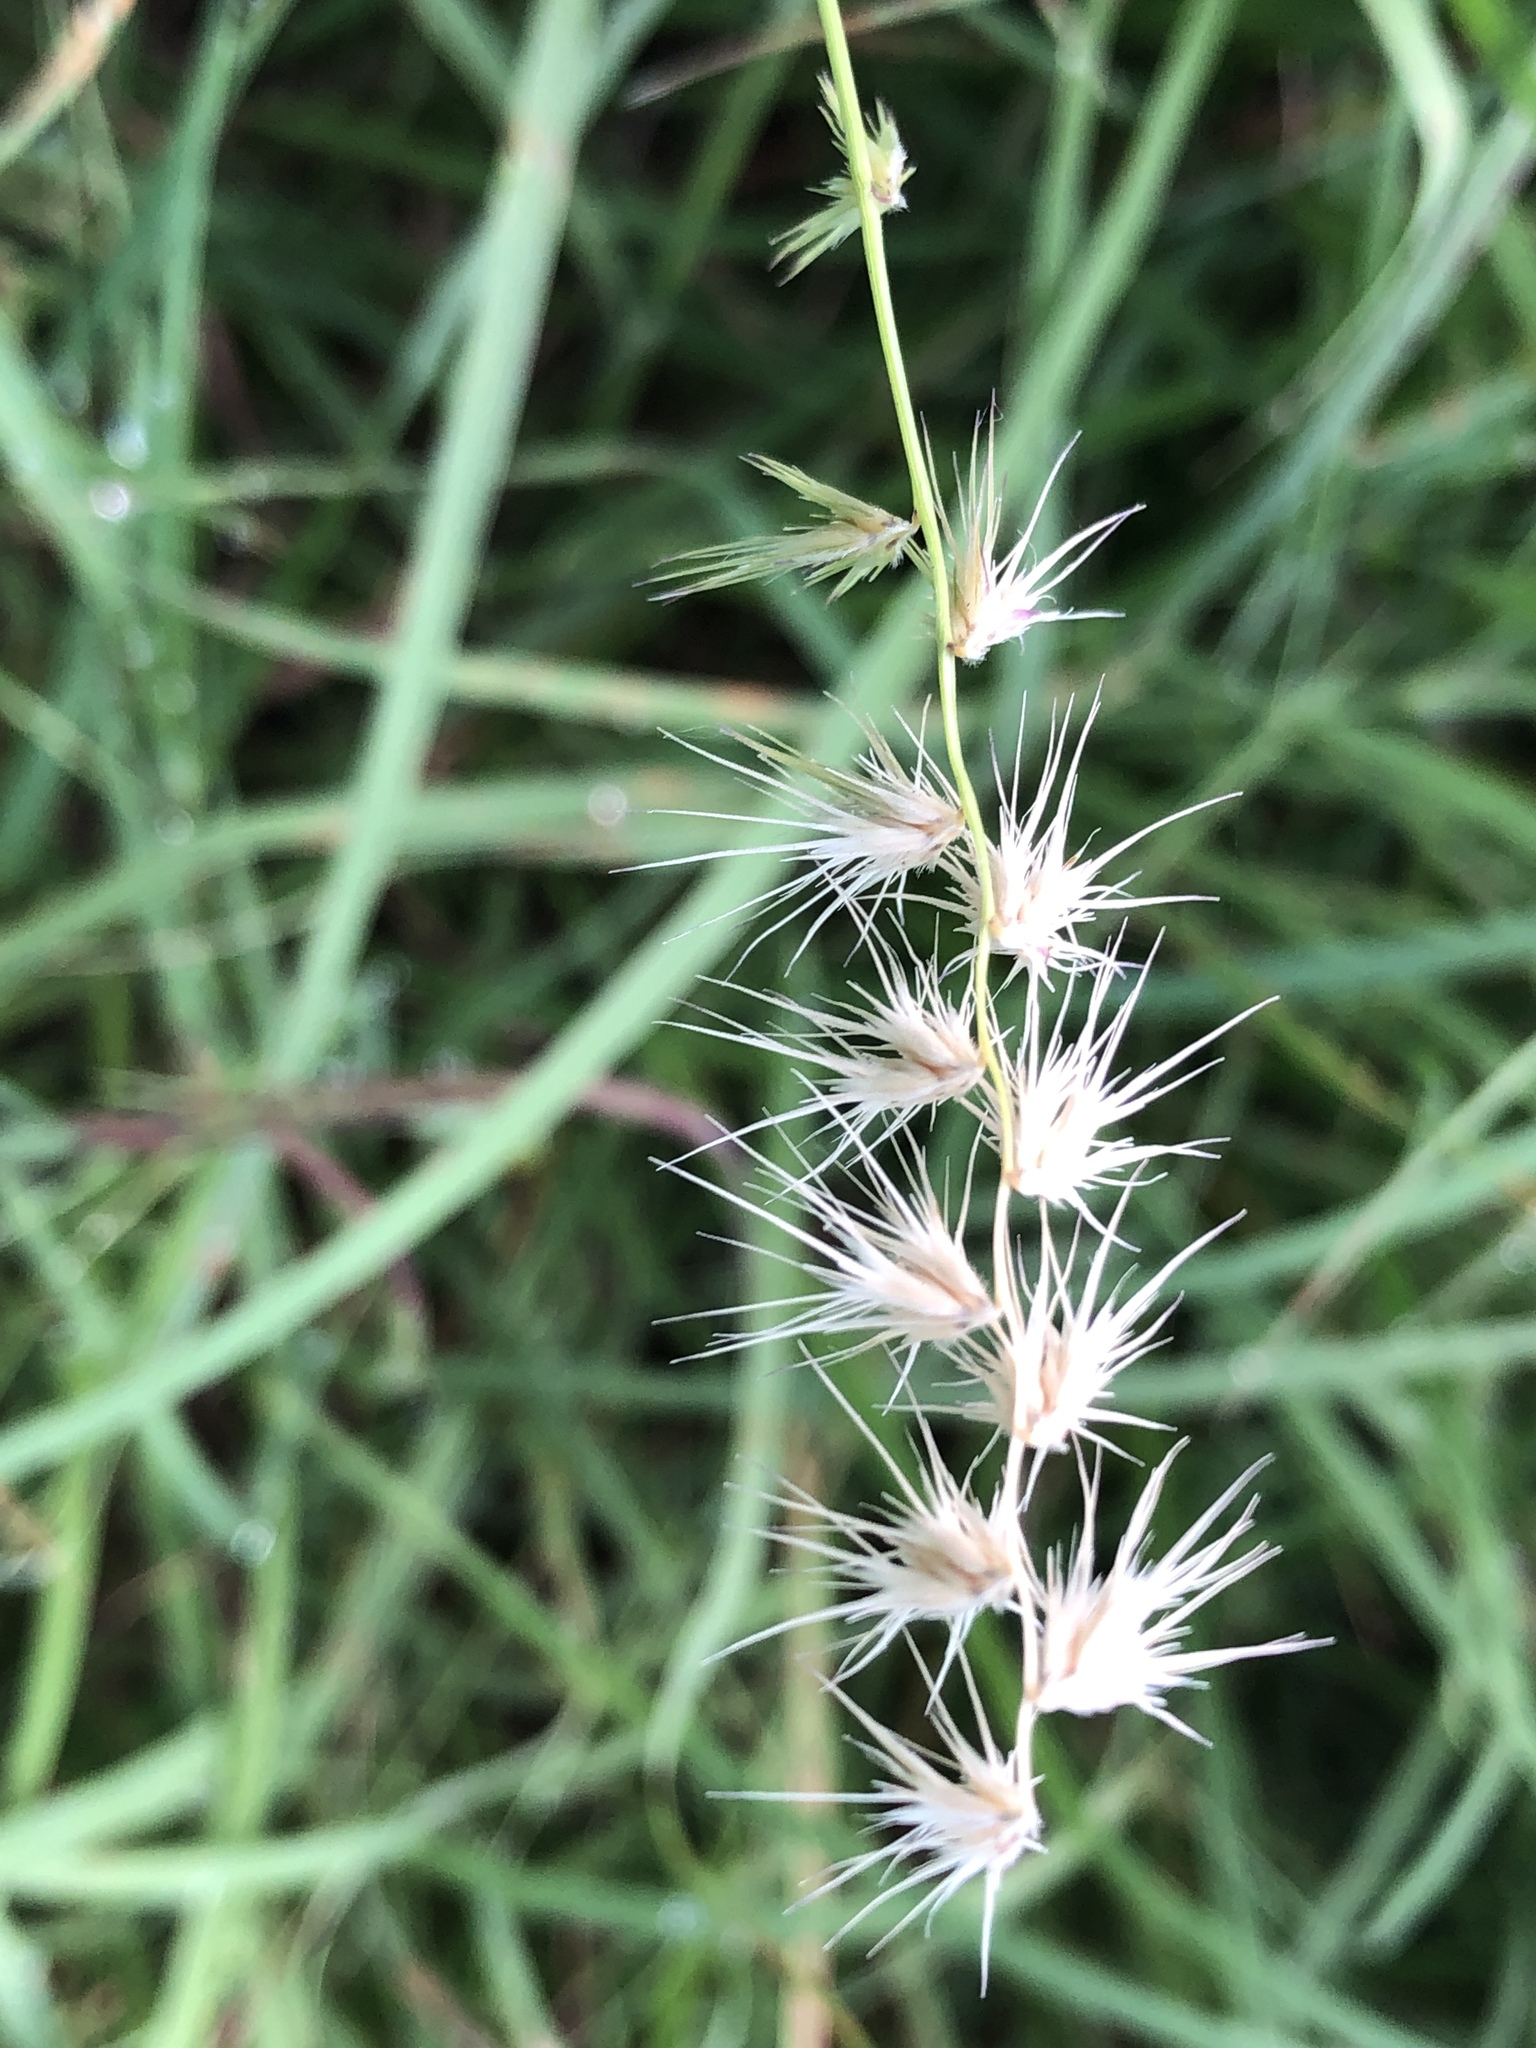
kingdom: Plantae
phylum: Tracheophyta
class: Liliopsida
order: Poales
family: Poaceae
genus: Bouteloua
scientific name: Bouteloua rigidiseta
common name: Texas grama
